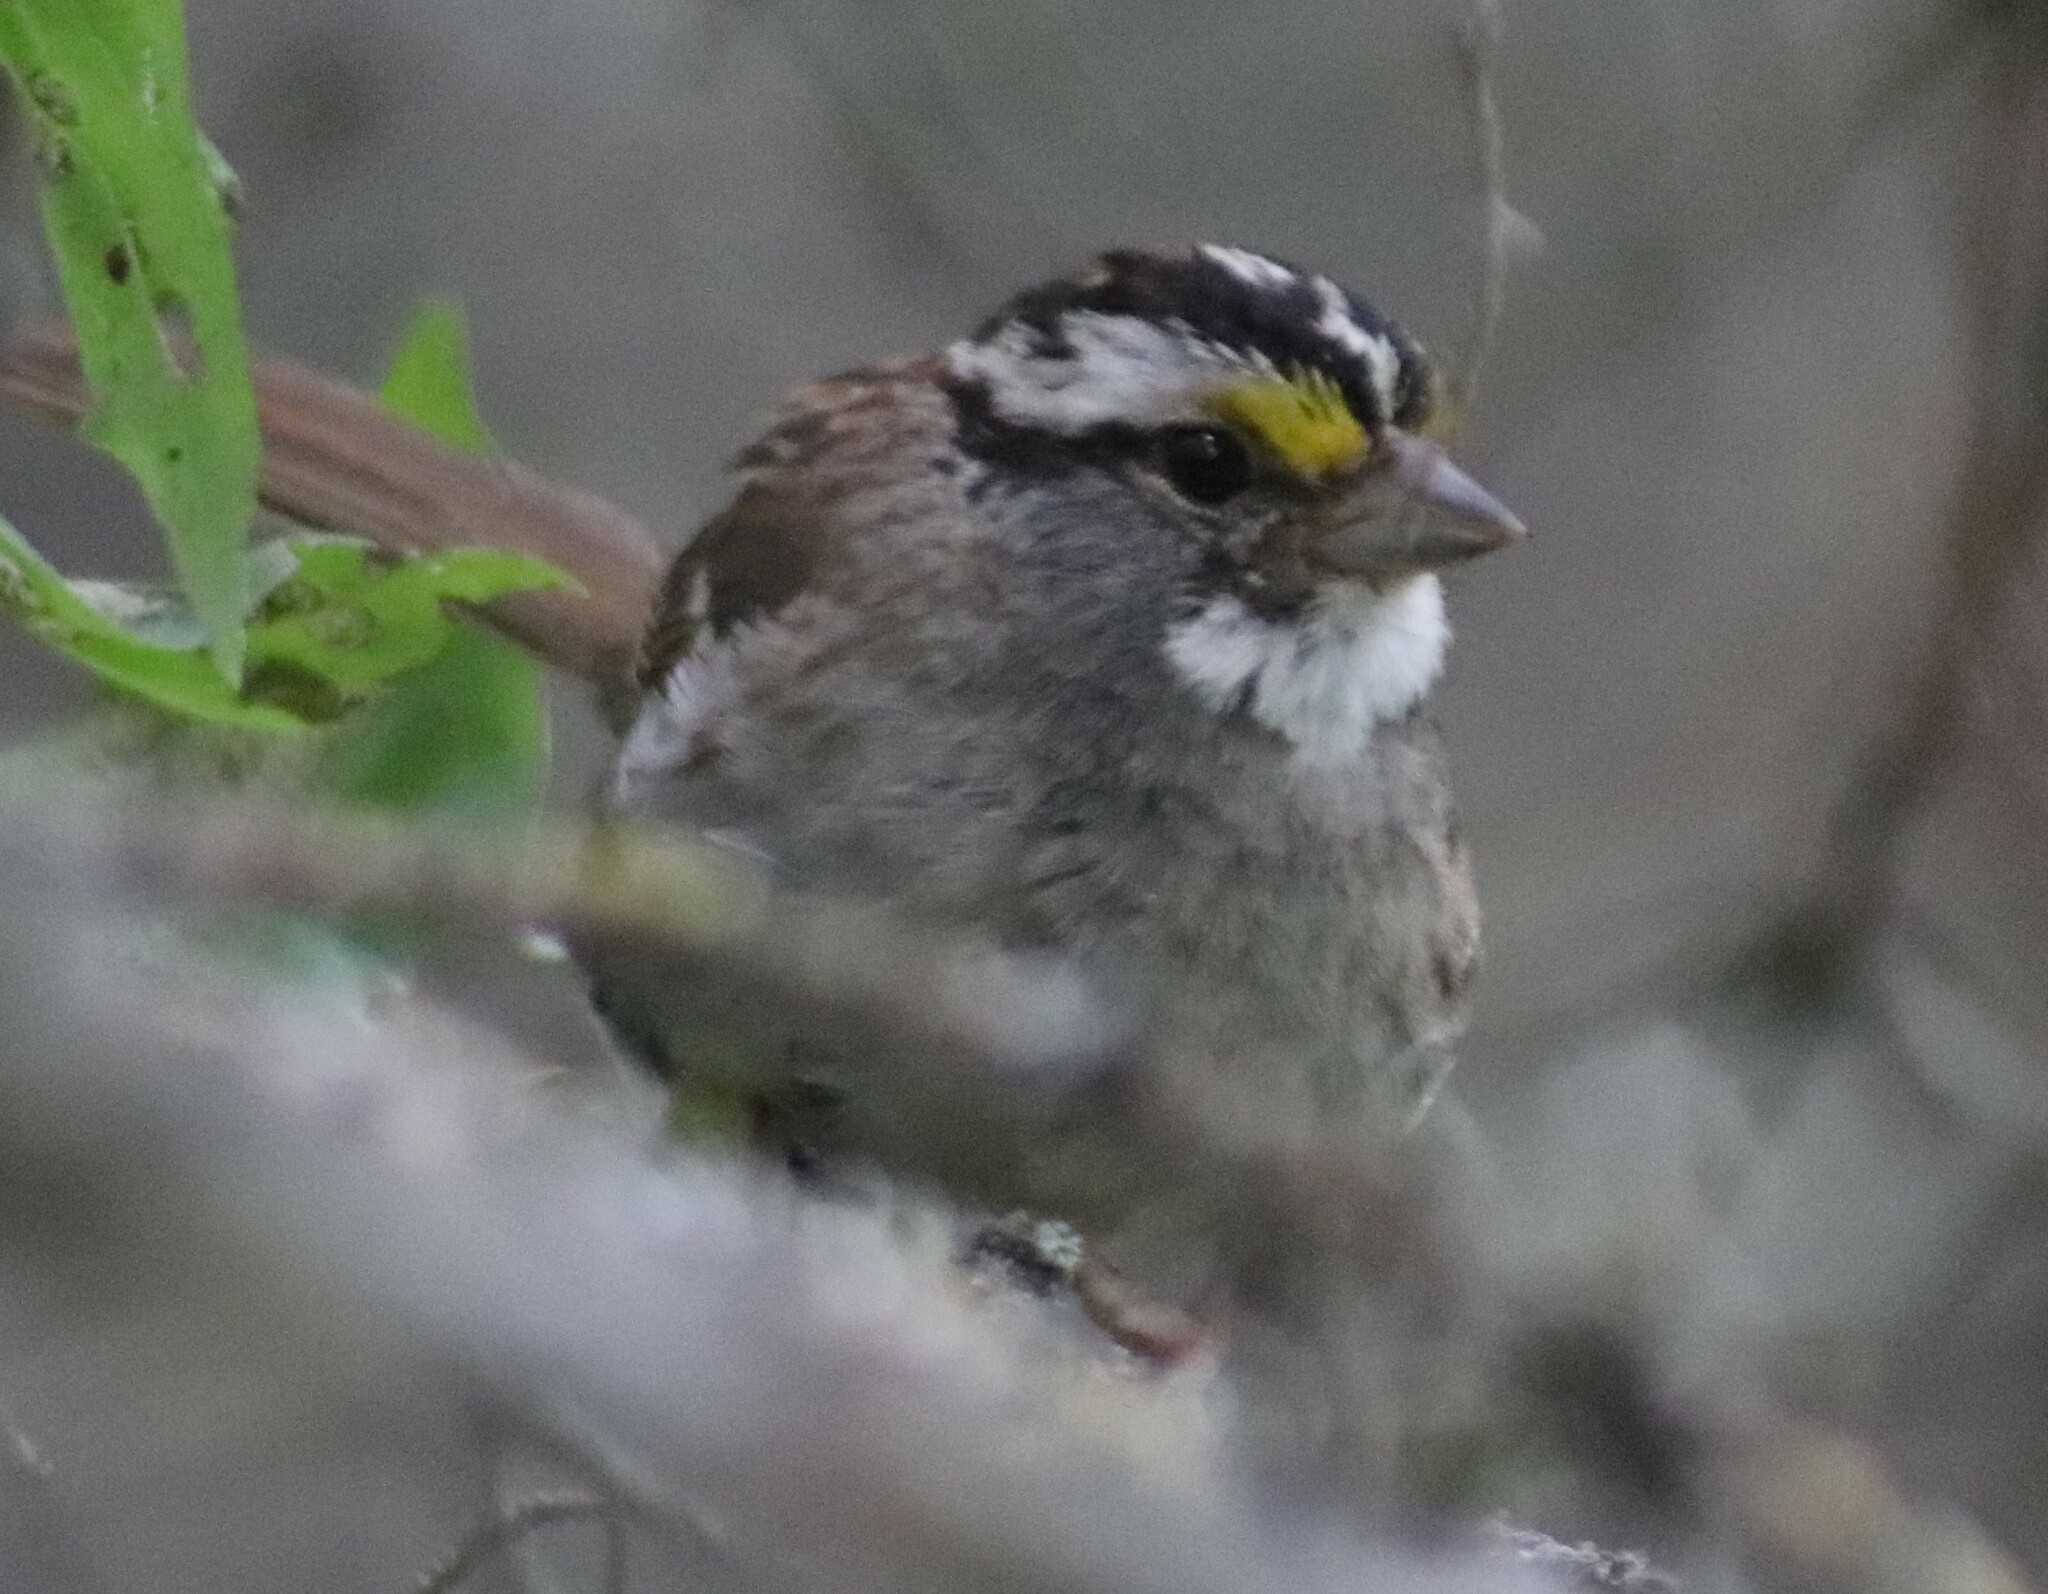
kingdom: Animalia
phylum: Chordata
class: Aves
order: Passeriformes
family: Passerellidae
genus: Zonotrichia
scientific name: Zonotrichia albicollis
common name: White-throated sparrow
